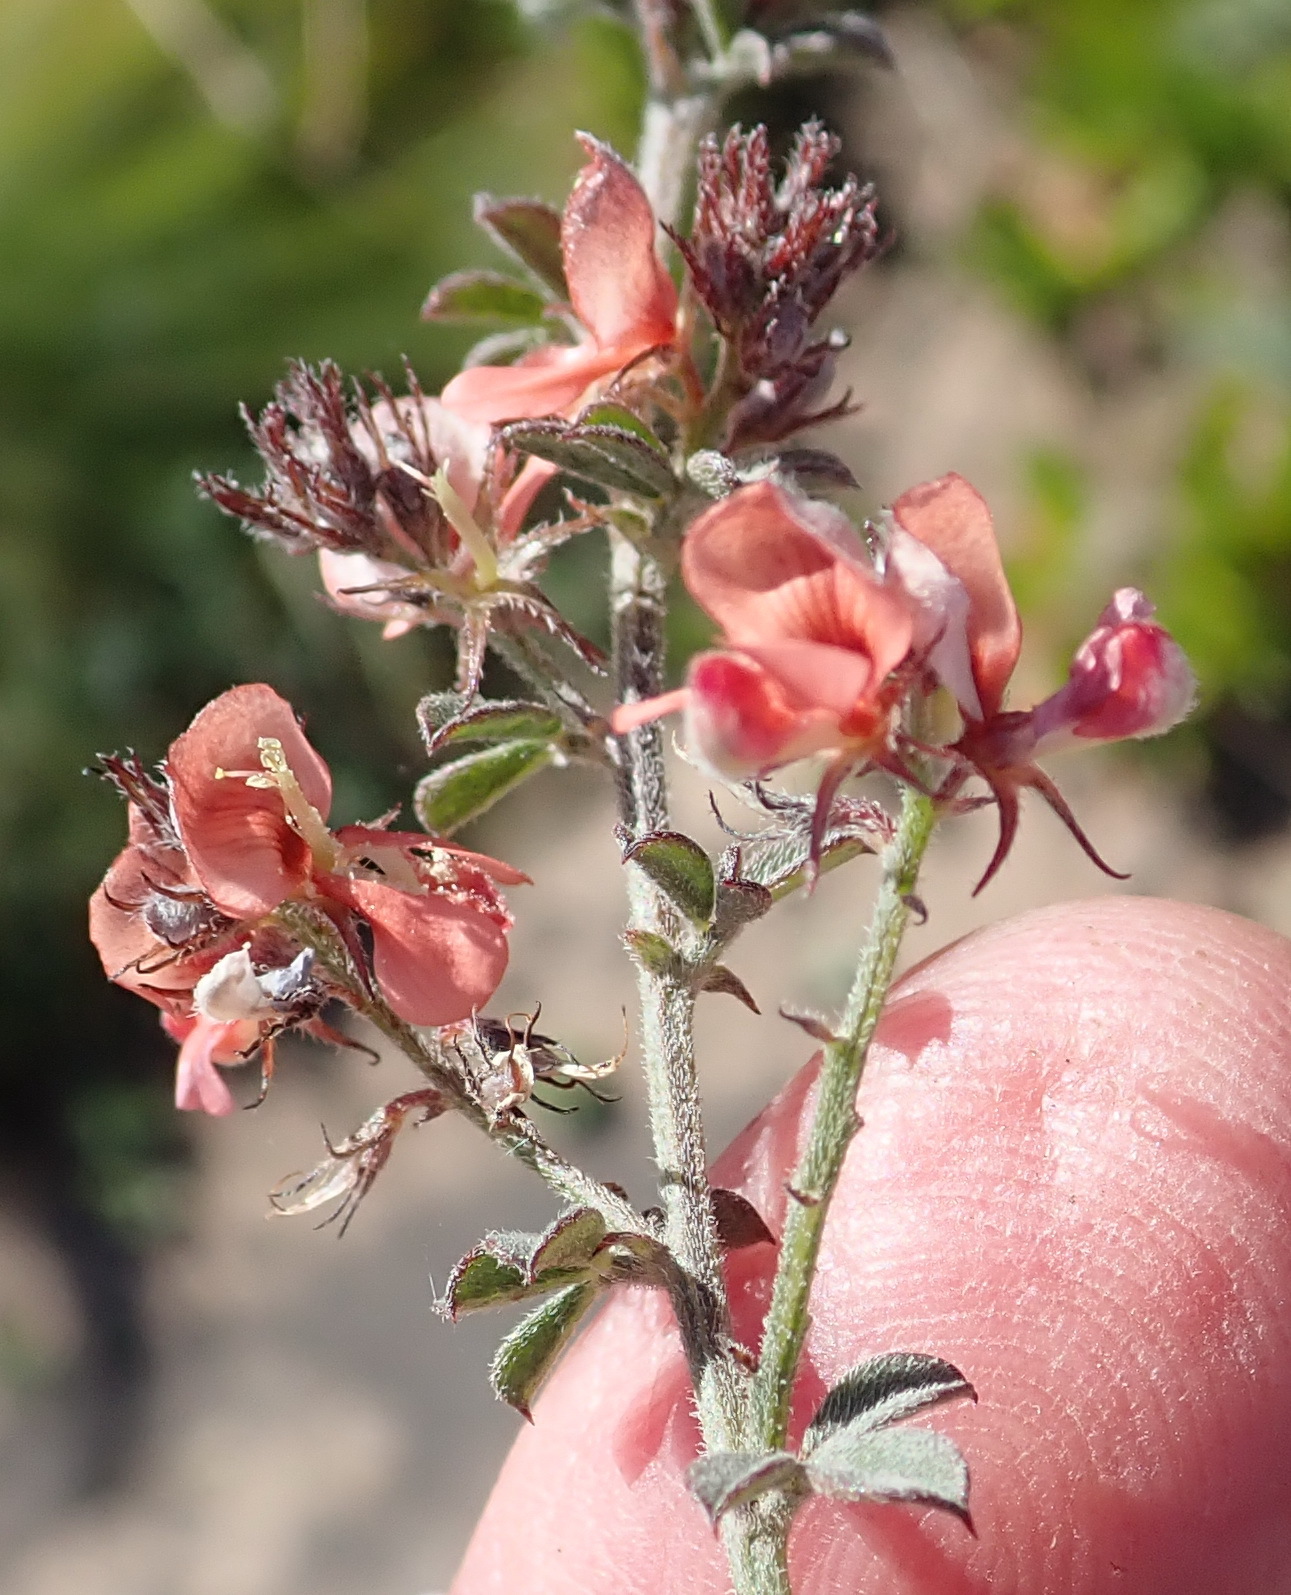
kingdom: Plantae
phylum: Tracheophyta
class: Magnoliopsida
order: Fabales
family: Fabaceae
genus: Indigofera
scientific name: Indigofera priorii
